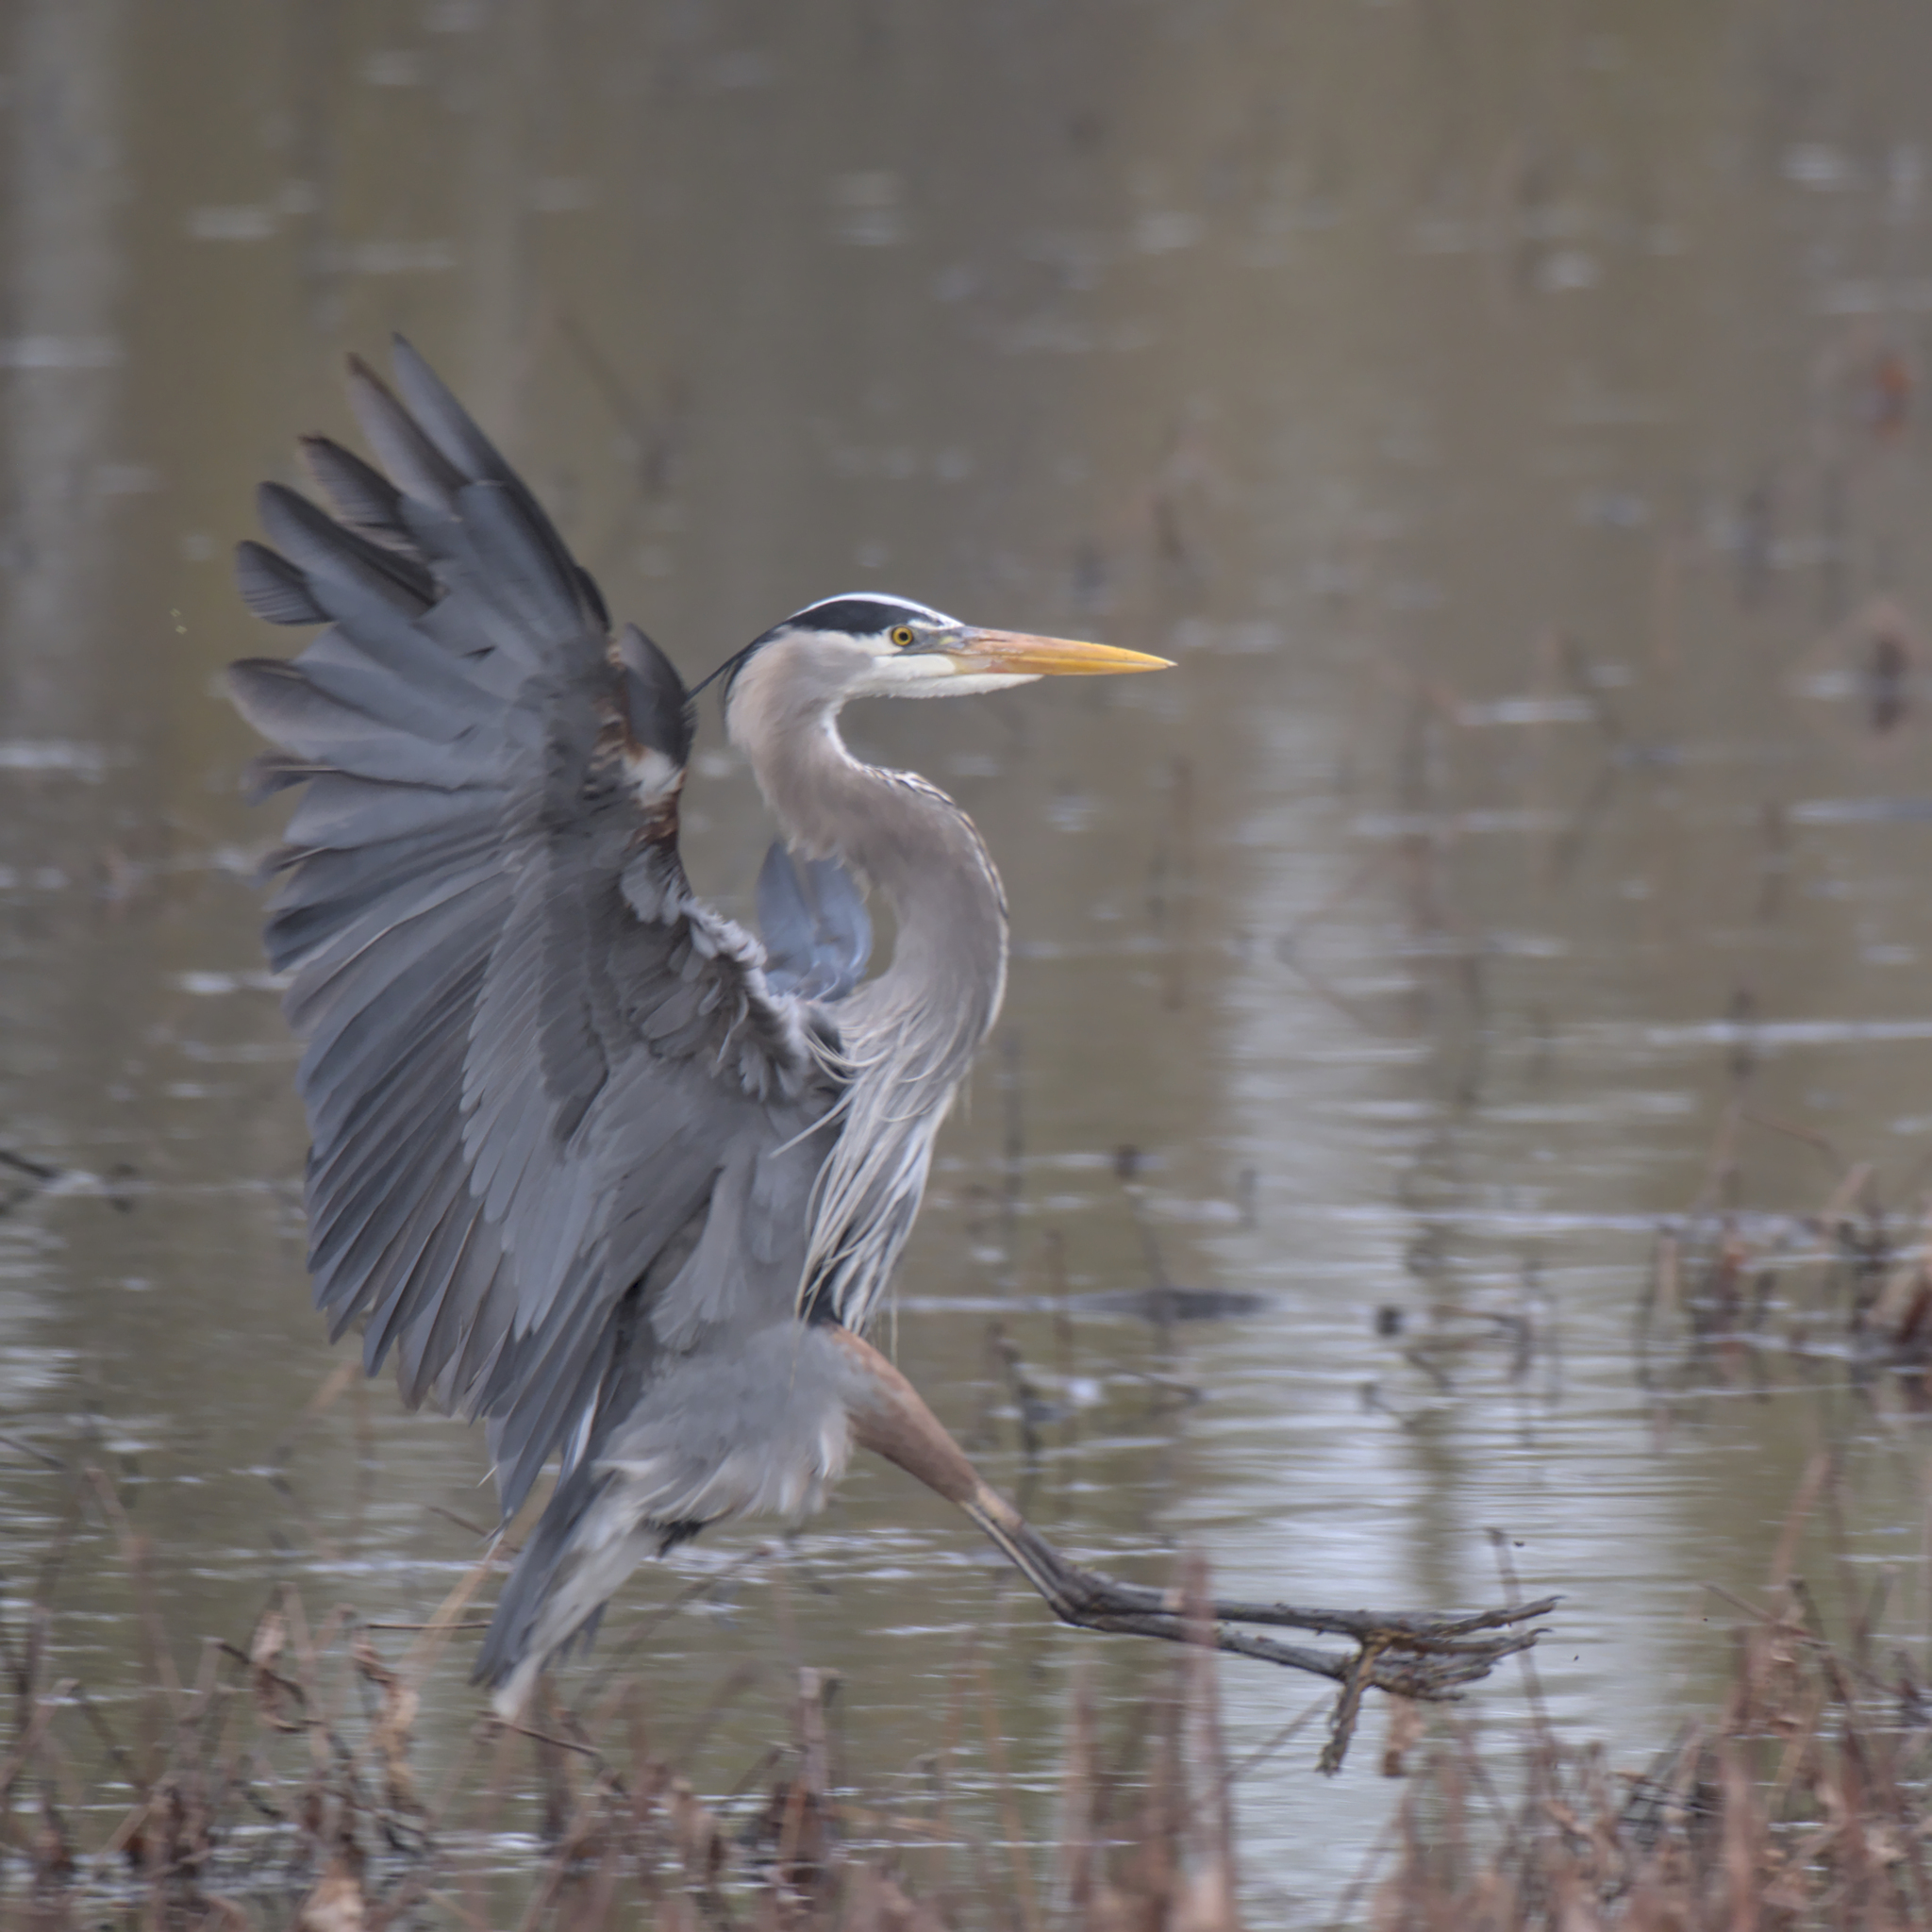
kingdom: Animalia
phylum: Chordata
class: Aves
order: Pelecaniformes
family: Ardeidae
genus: Ardea
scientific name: Ardea herodias
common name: Great blue heron
